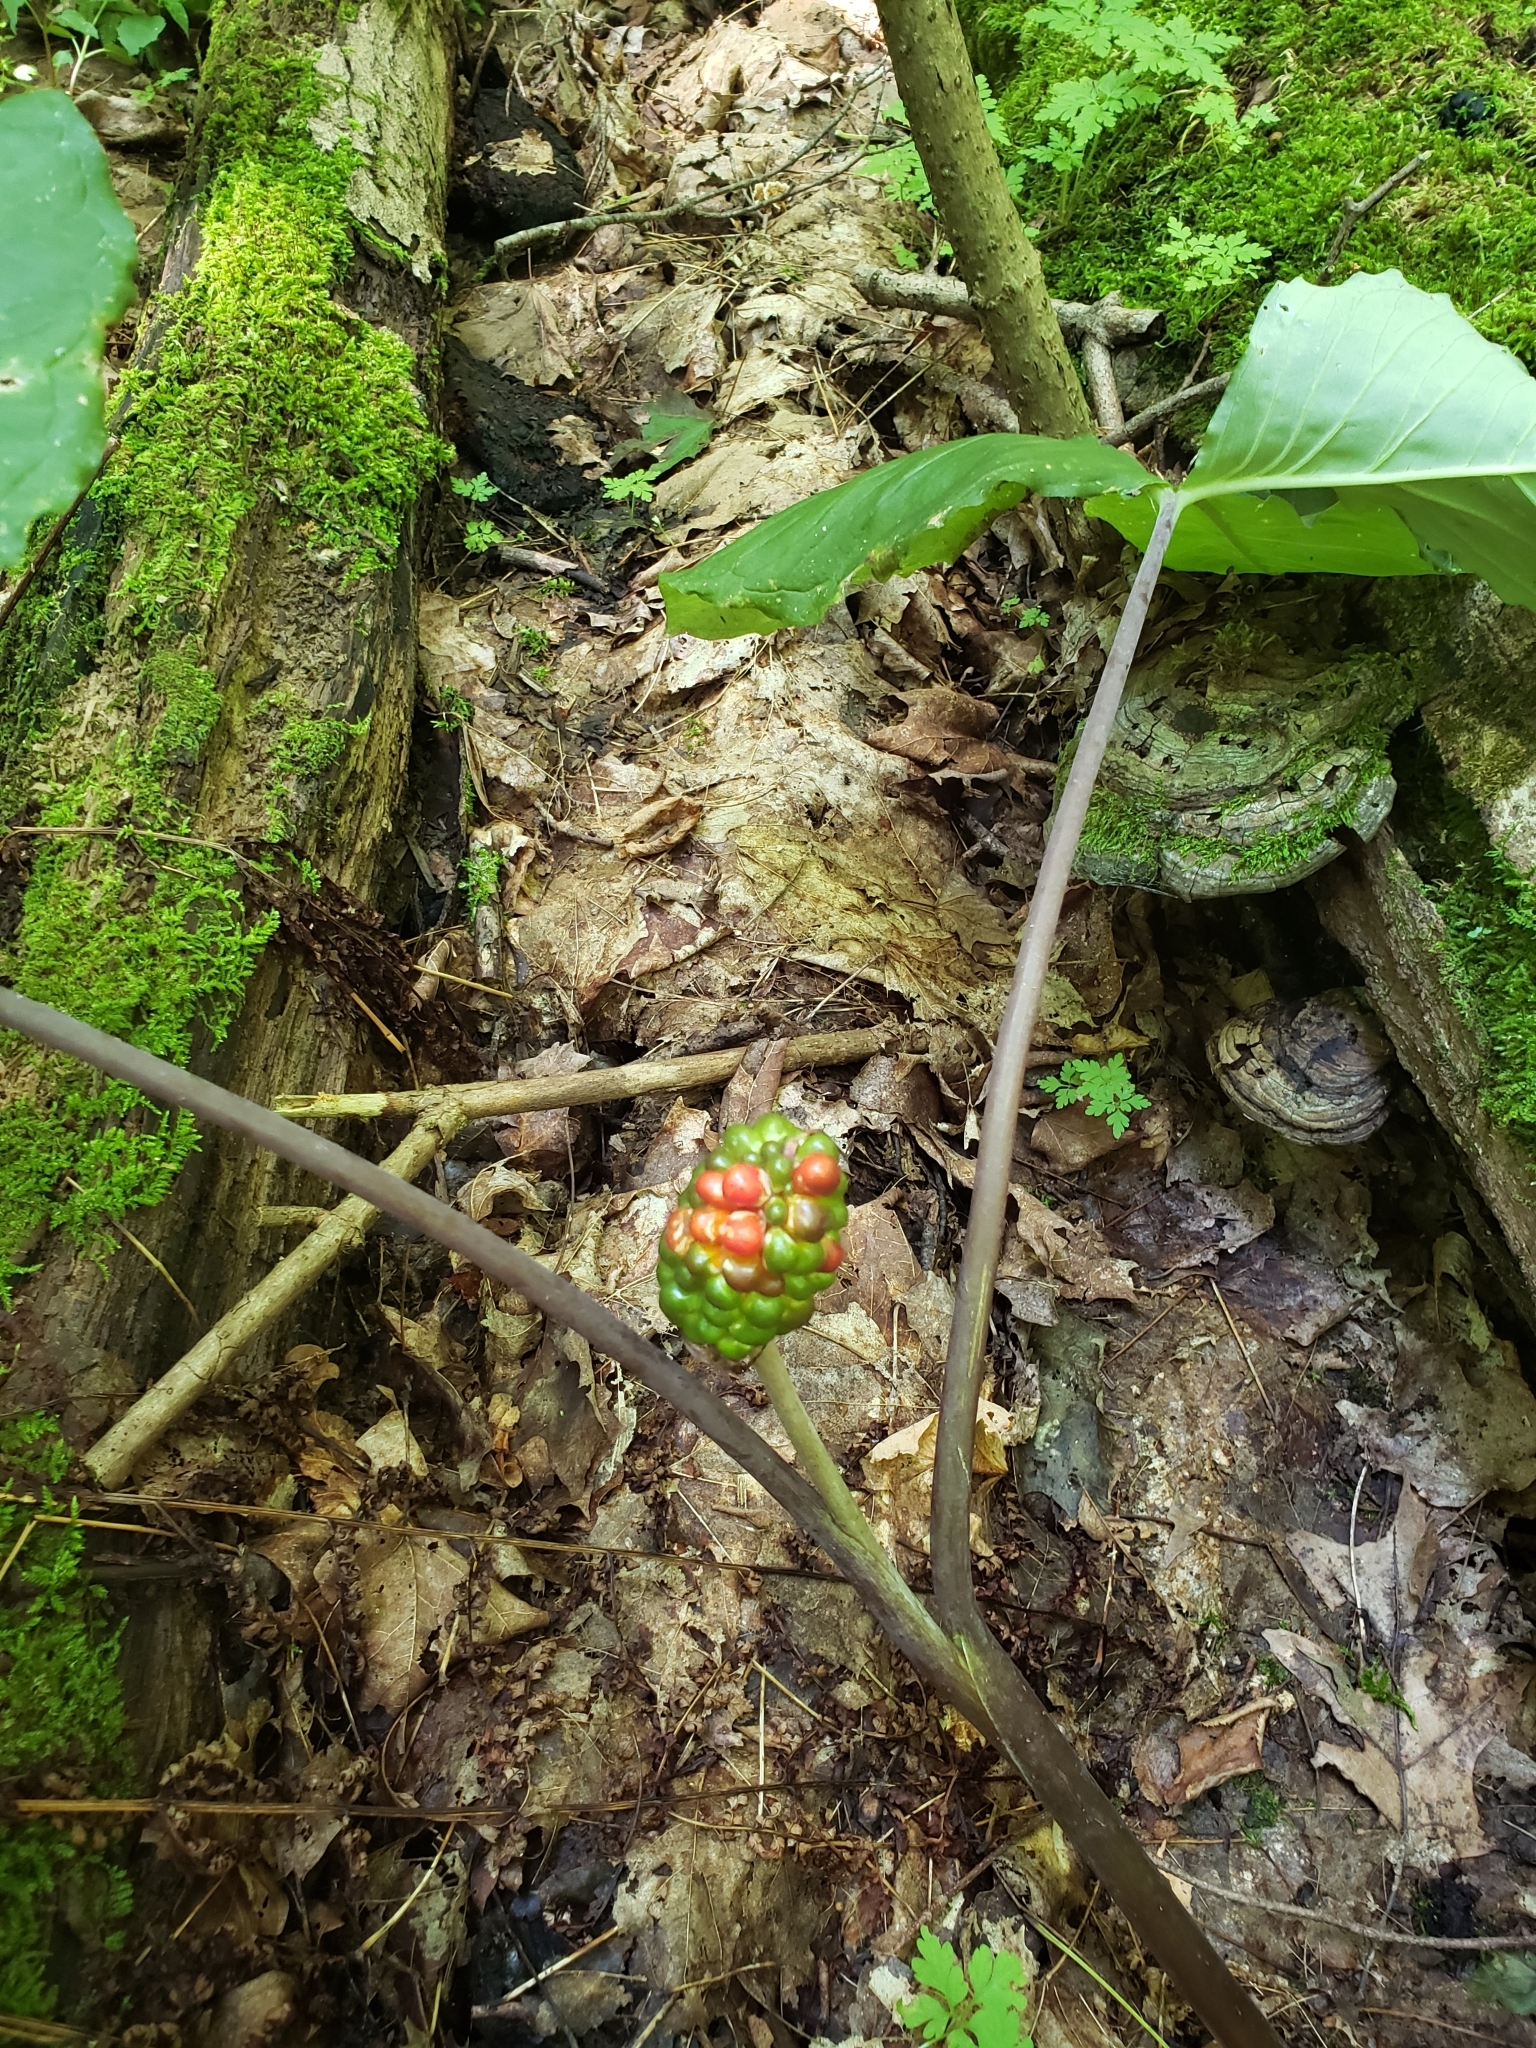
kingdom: Plantae
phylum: Tracheophyta
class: Liliopsida
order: Alismatales
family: Araceae
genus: Arisaema
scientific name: Arisaema triphyllum
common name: Jack-in-the-pulpit
